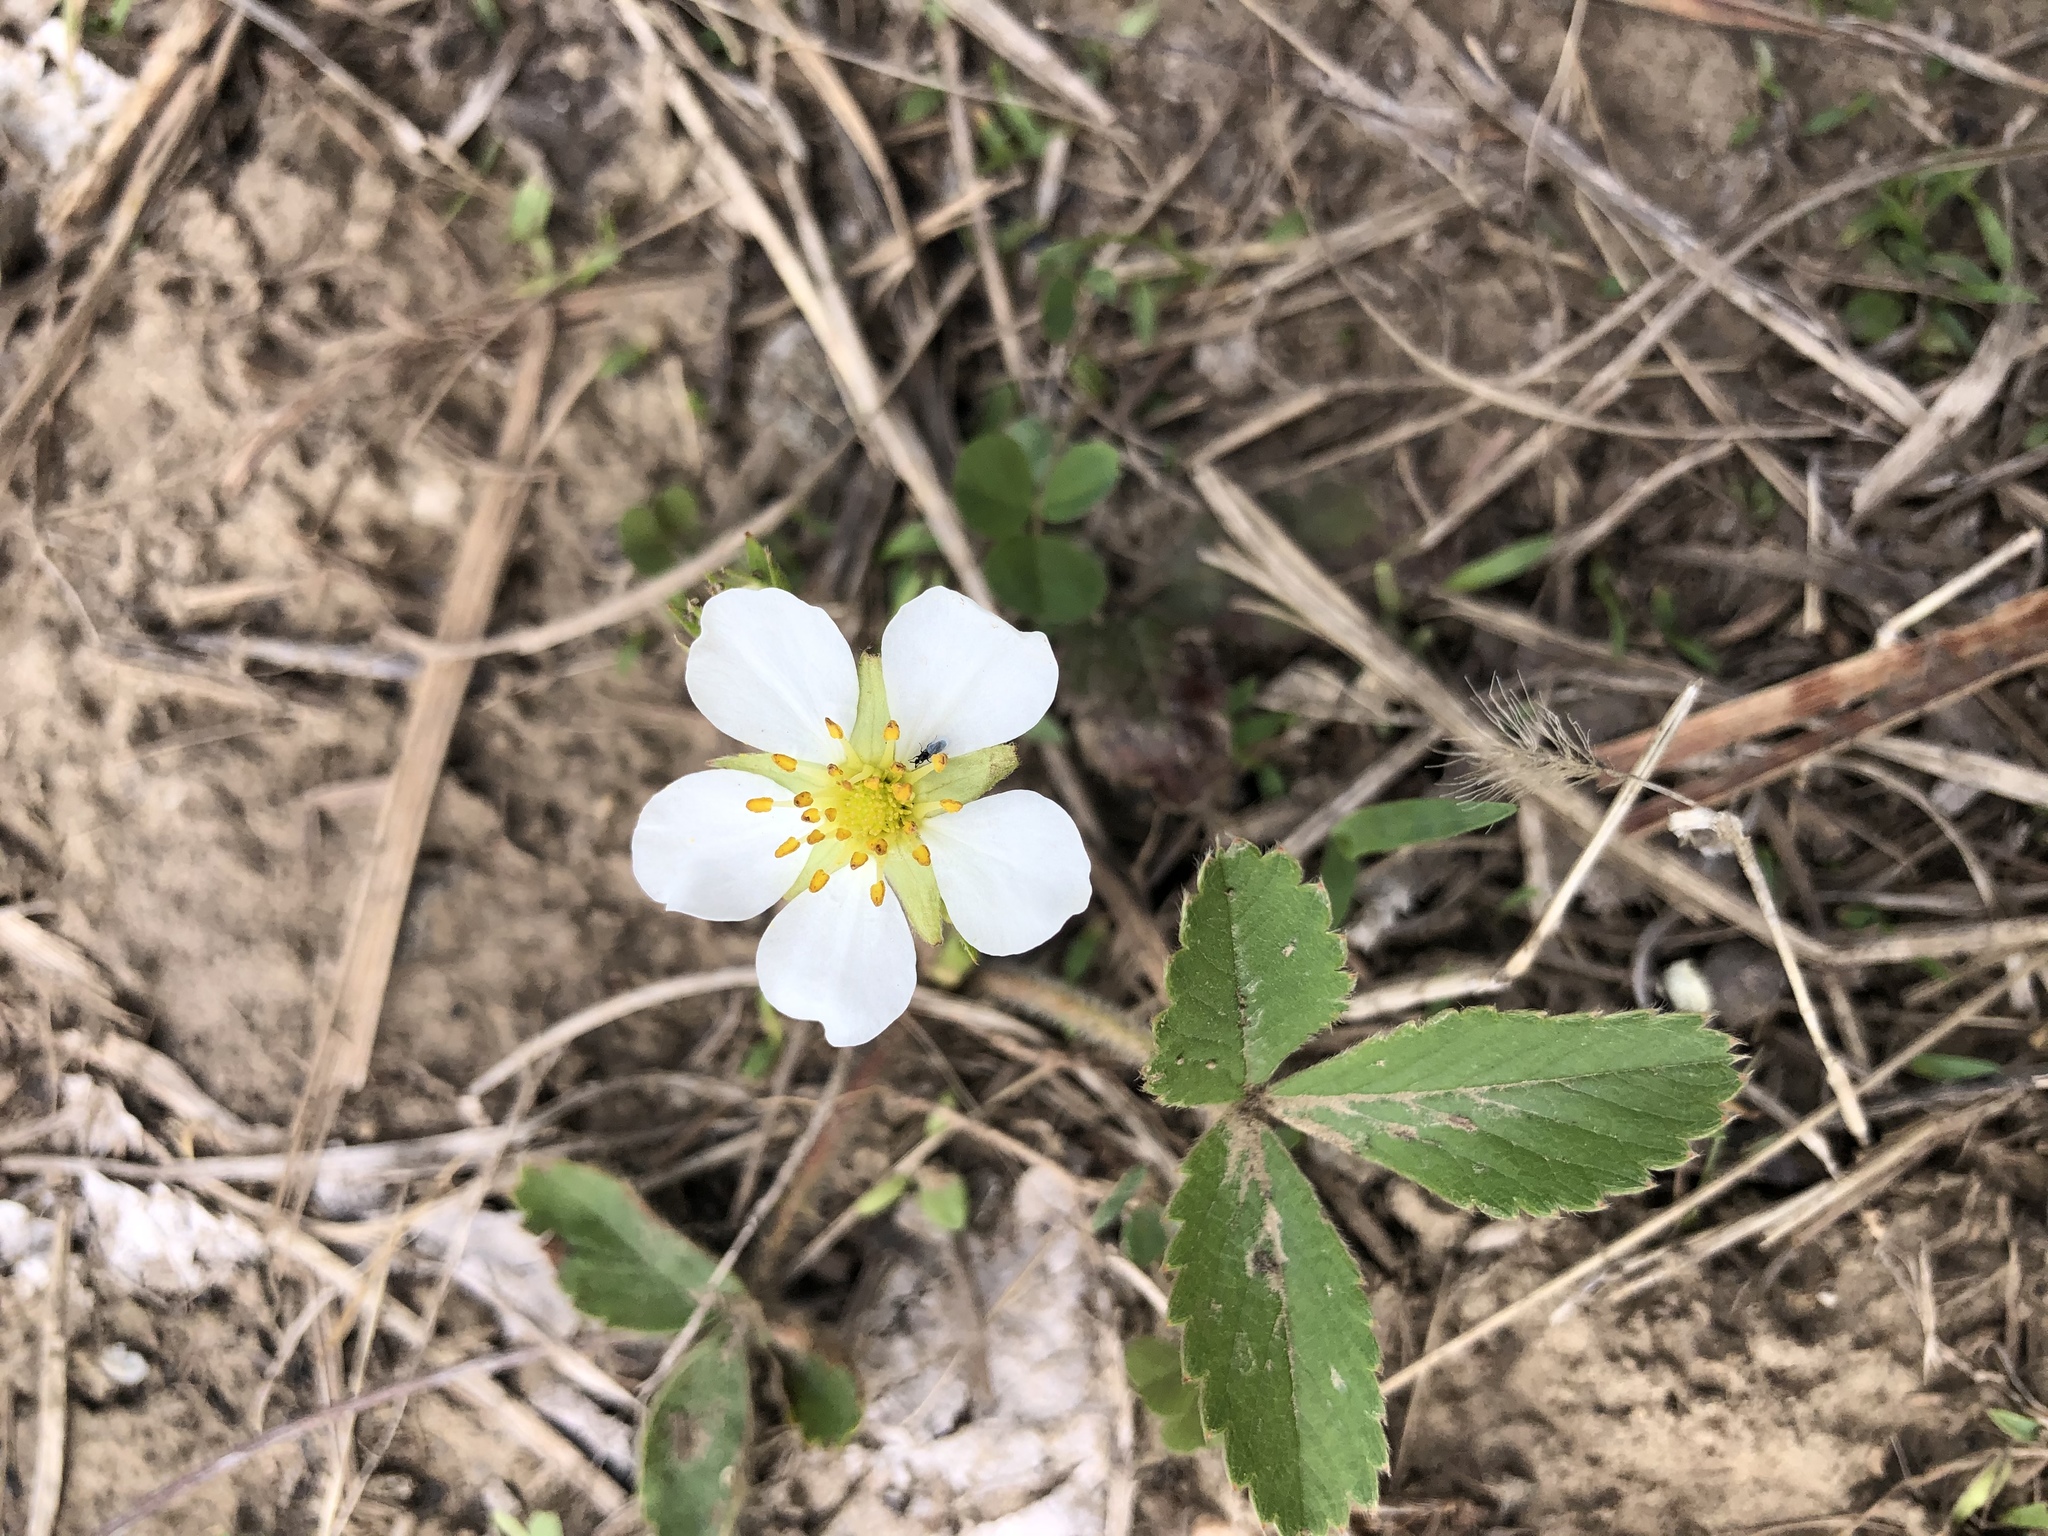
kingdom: Plantae
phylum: Tracheophyta
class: Magnoliopsida
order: Rosales
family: Rosaceae
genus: Fragaria
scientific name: Fragaria virginiana
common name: Thickleaved wild strawberry
